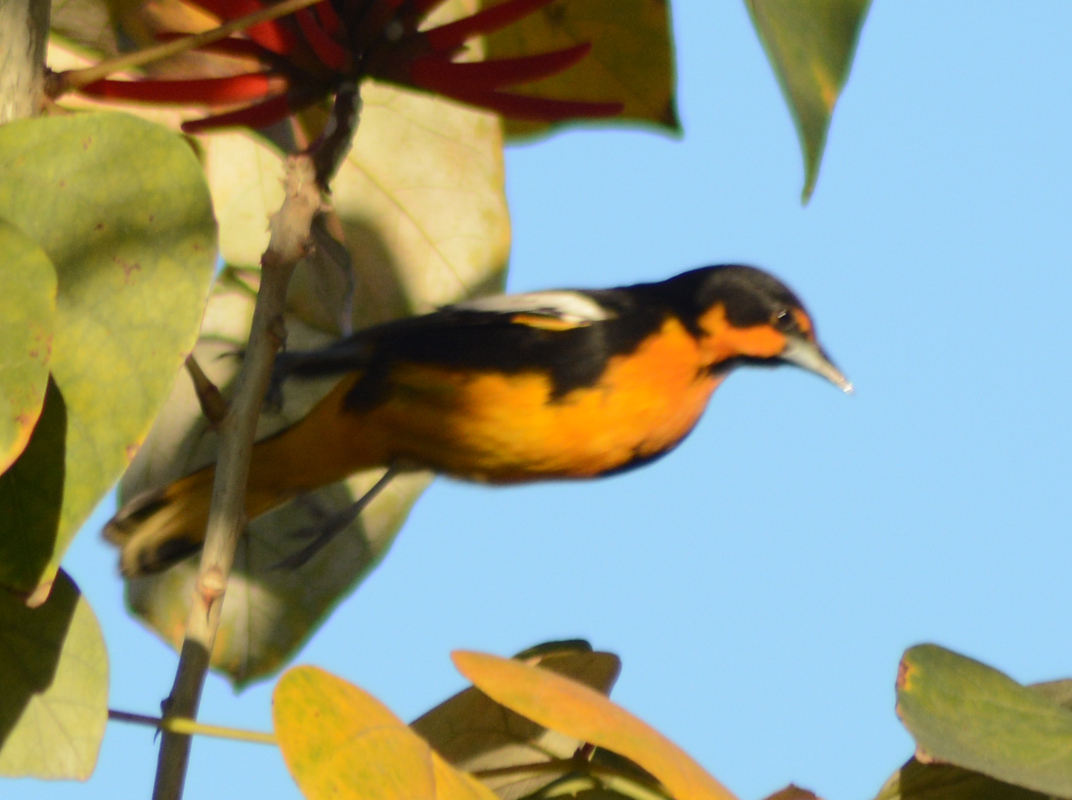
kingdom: Animalia
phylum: Chordata
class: Aves
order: Passeriformes
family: Icteridae
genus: Icterus
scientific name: Icterus abeillei
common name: Black-backed oriole
